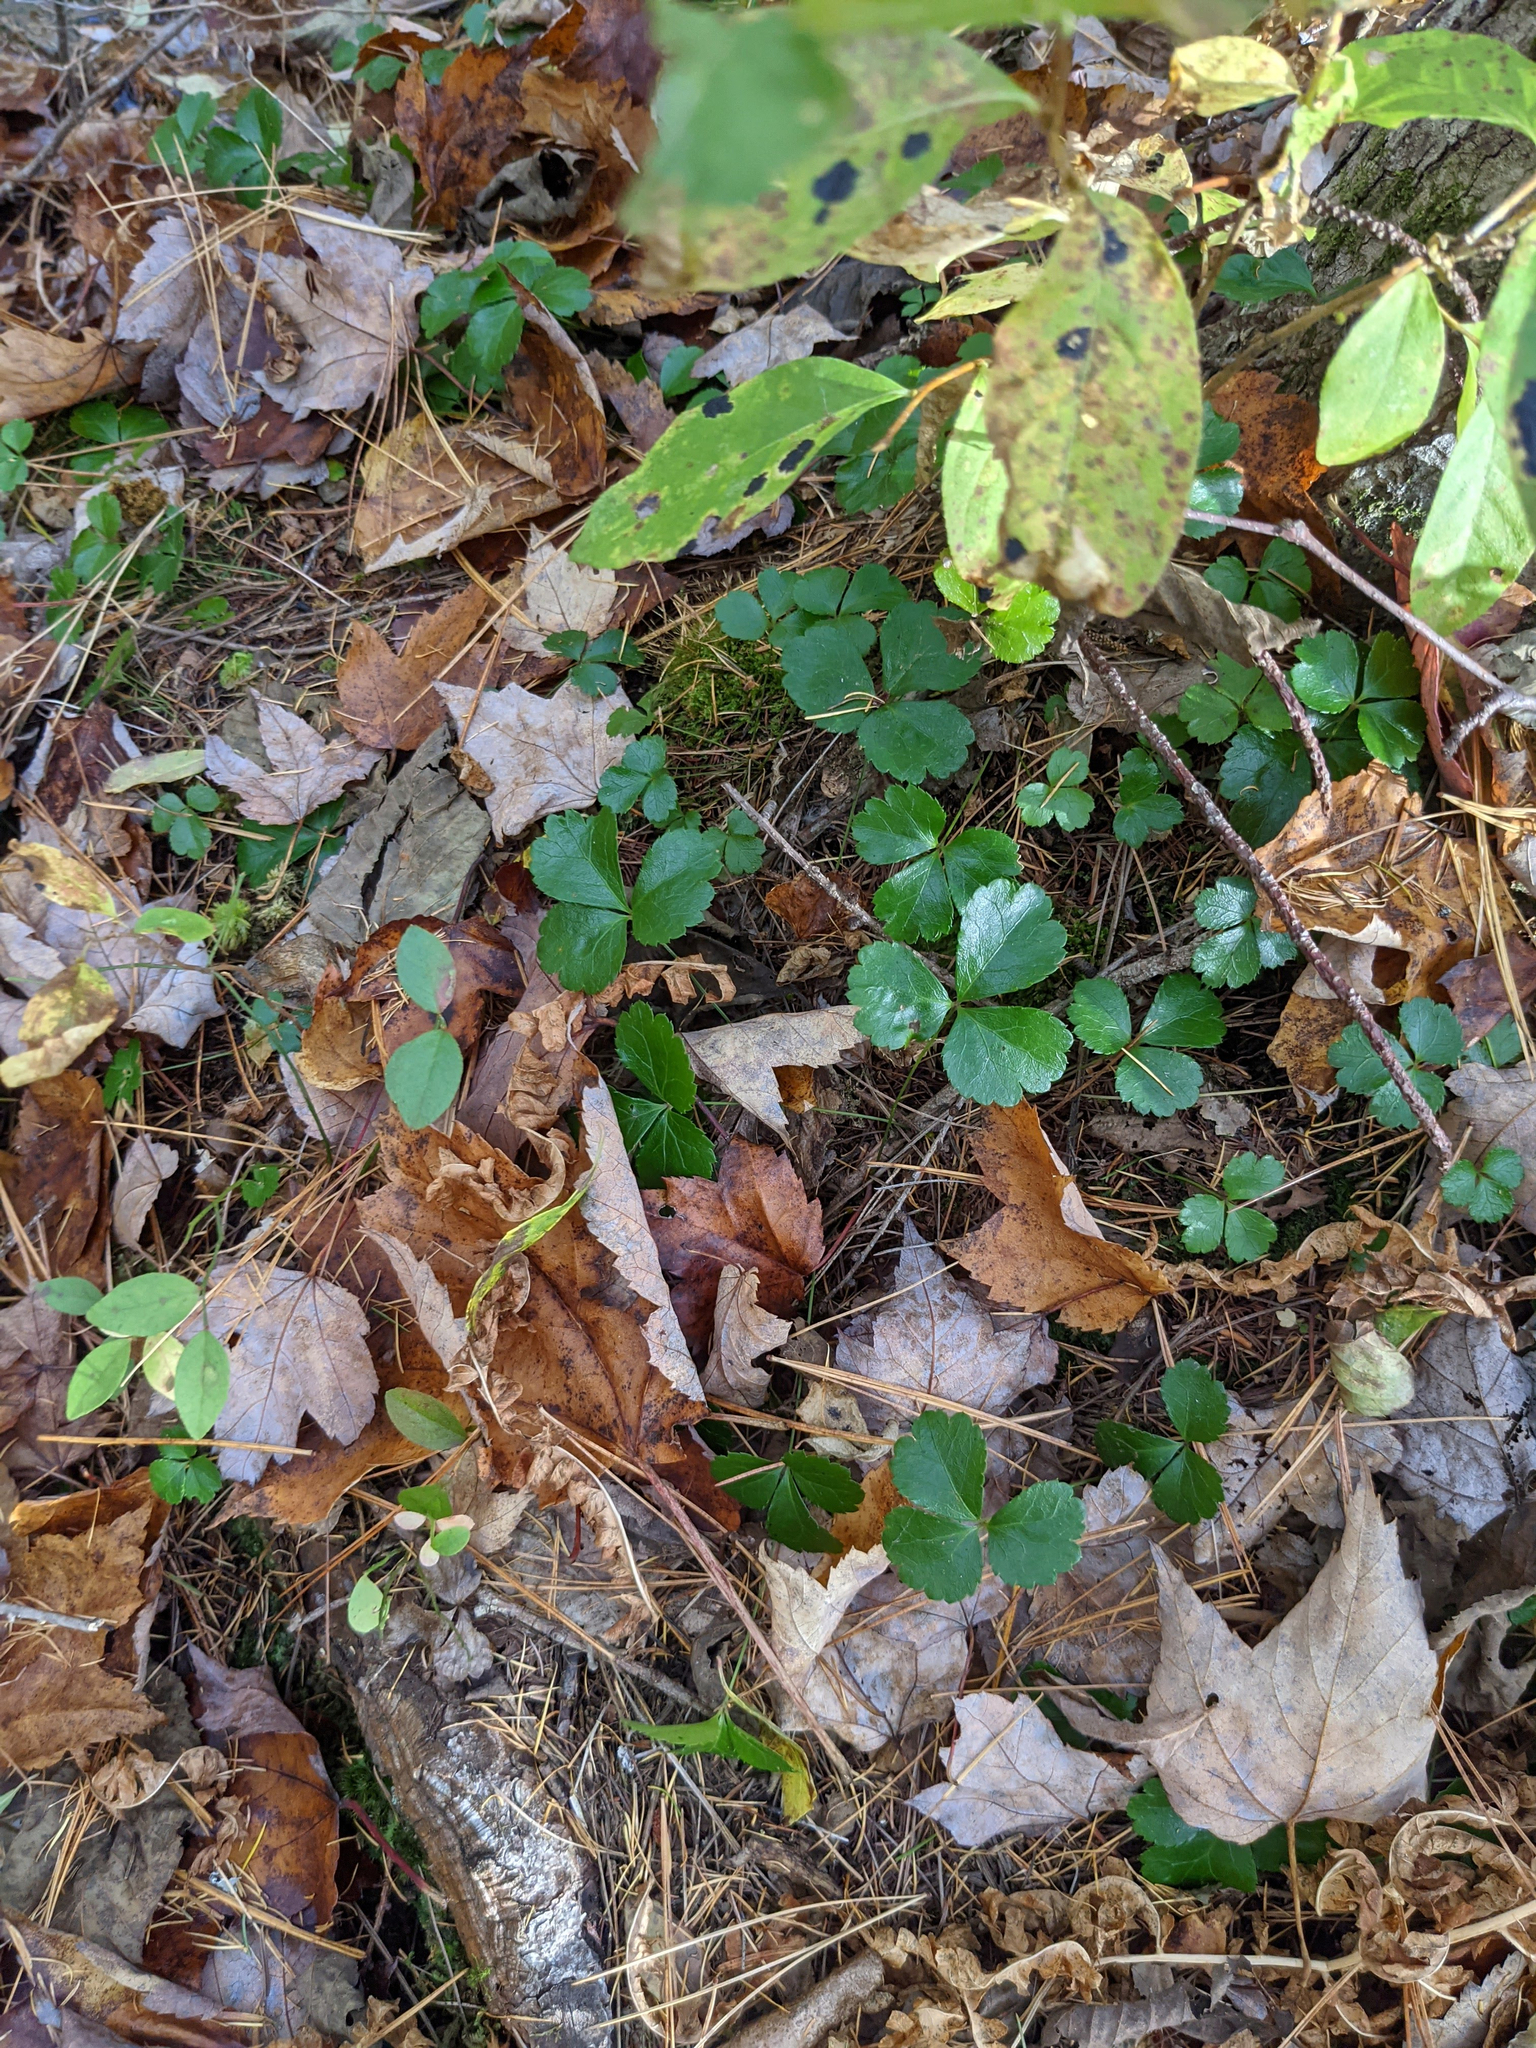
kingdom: Plantae
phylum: Tracheophyta
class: Magnoliopsida
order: Ranunculales
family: Ranunculaceae
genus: Coptis
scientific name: Coptis trifolia
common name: Canker-root
